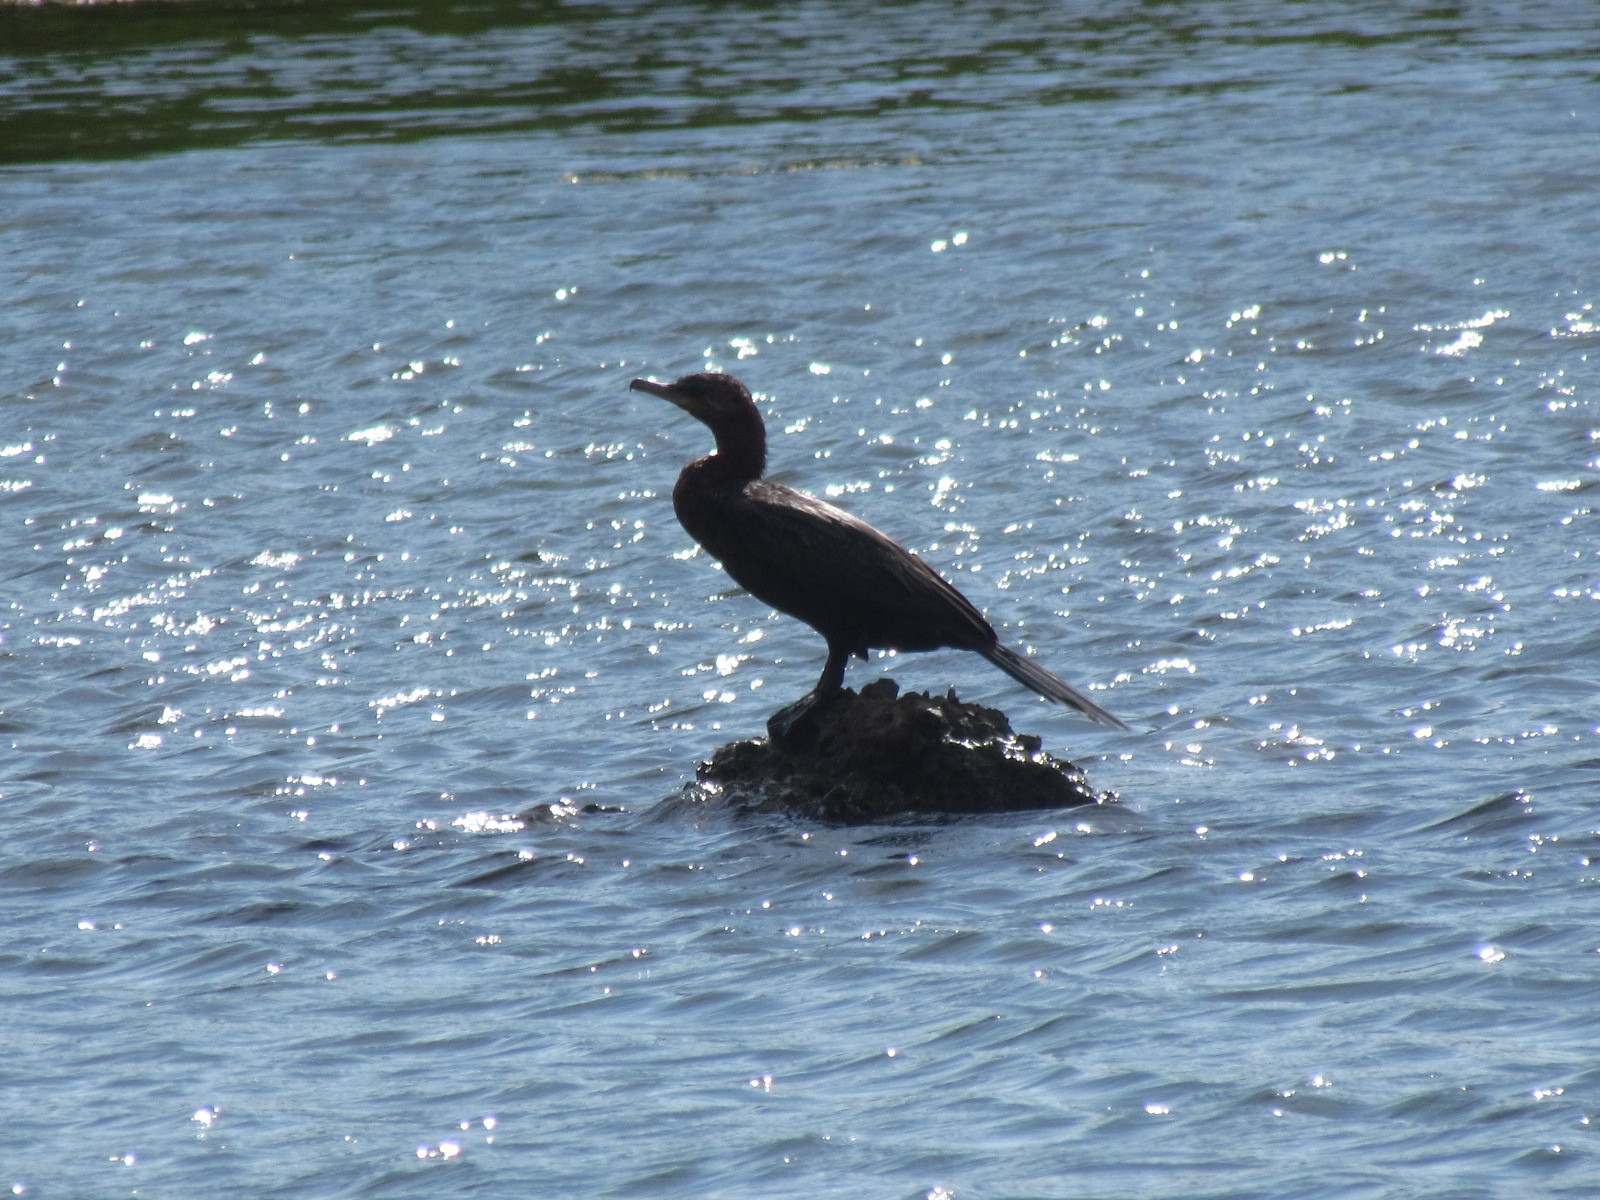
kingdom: Animalia
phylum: Chordata
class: Aves
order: Suliformes
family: Phalacrocoracidae
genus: Phalacrocorax
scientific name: Phalacrocorax brasilianus
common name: Neotropic cormorant
